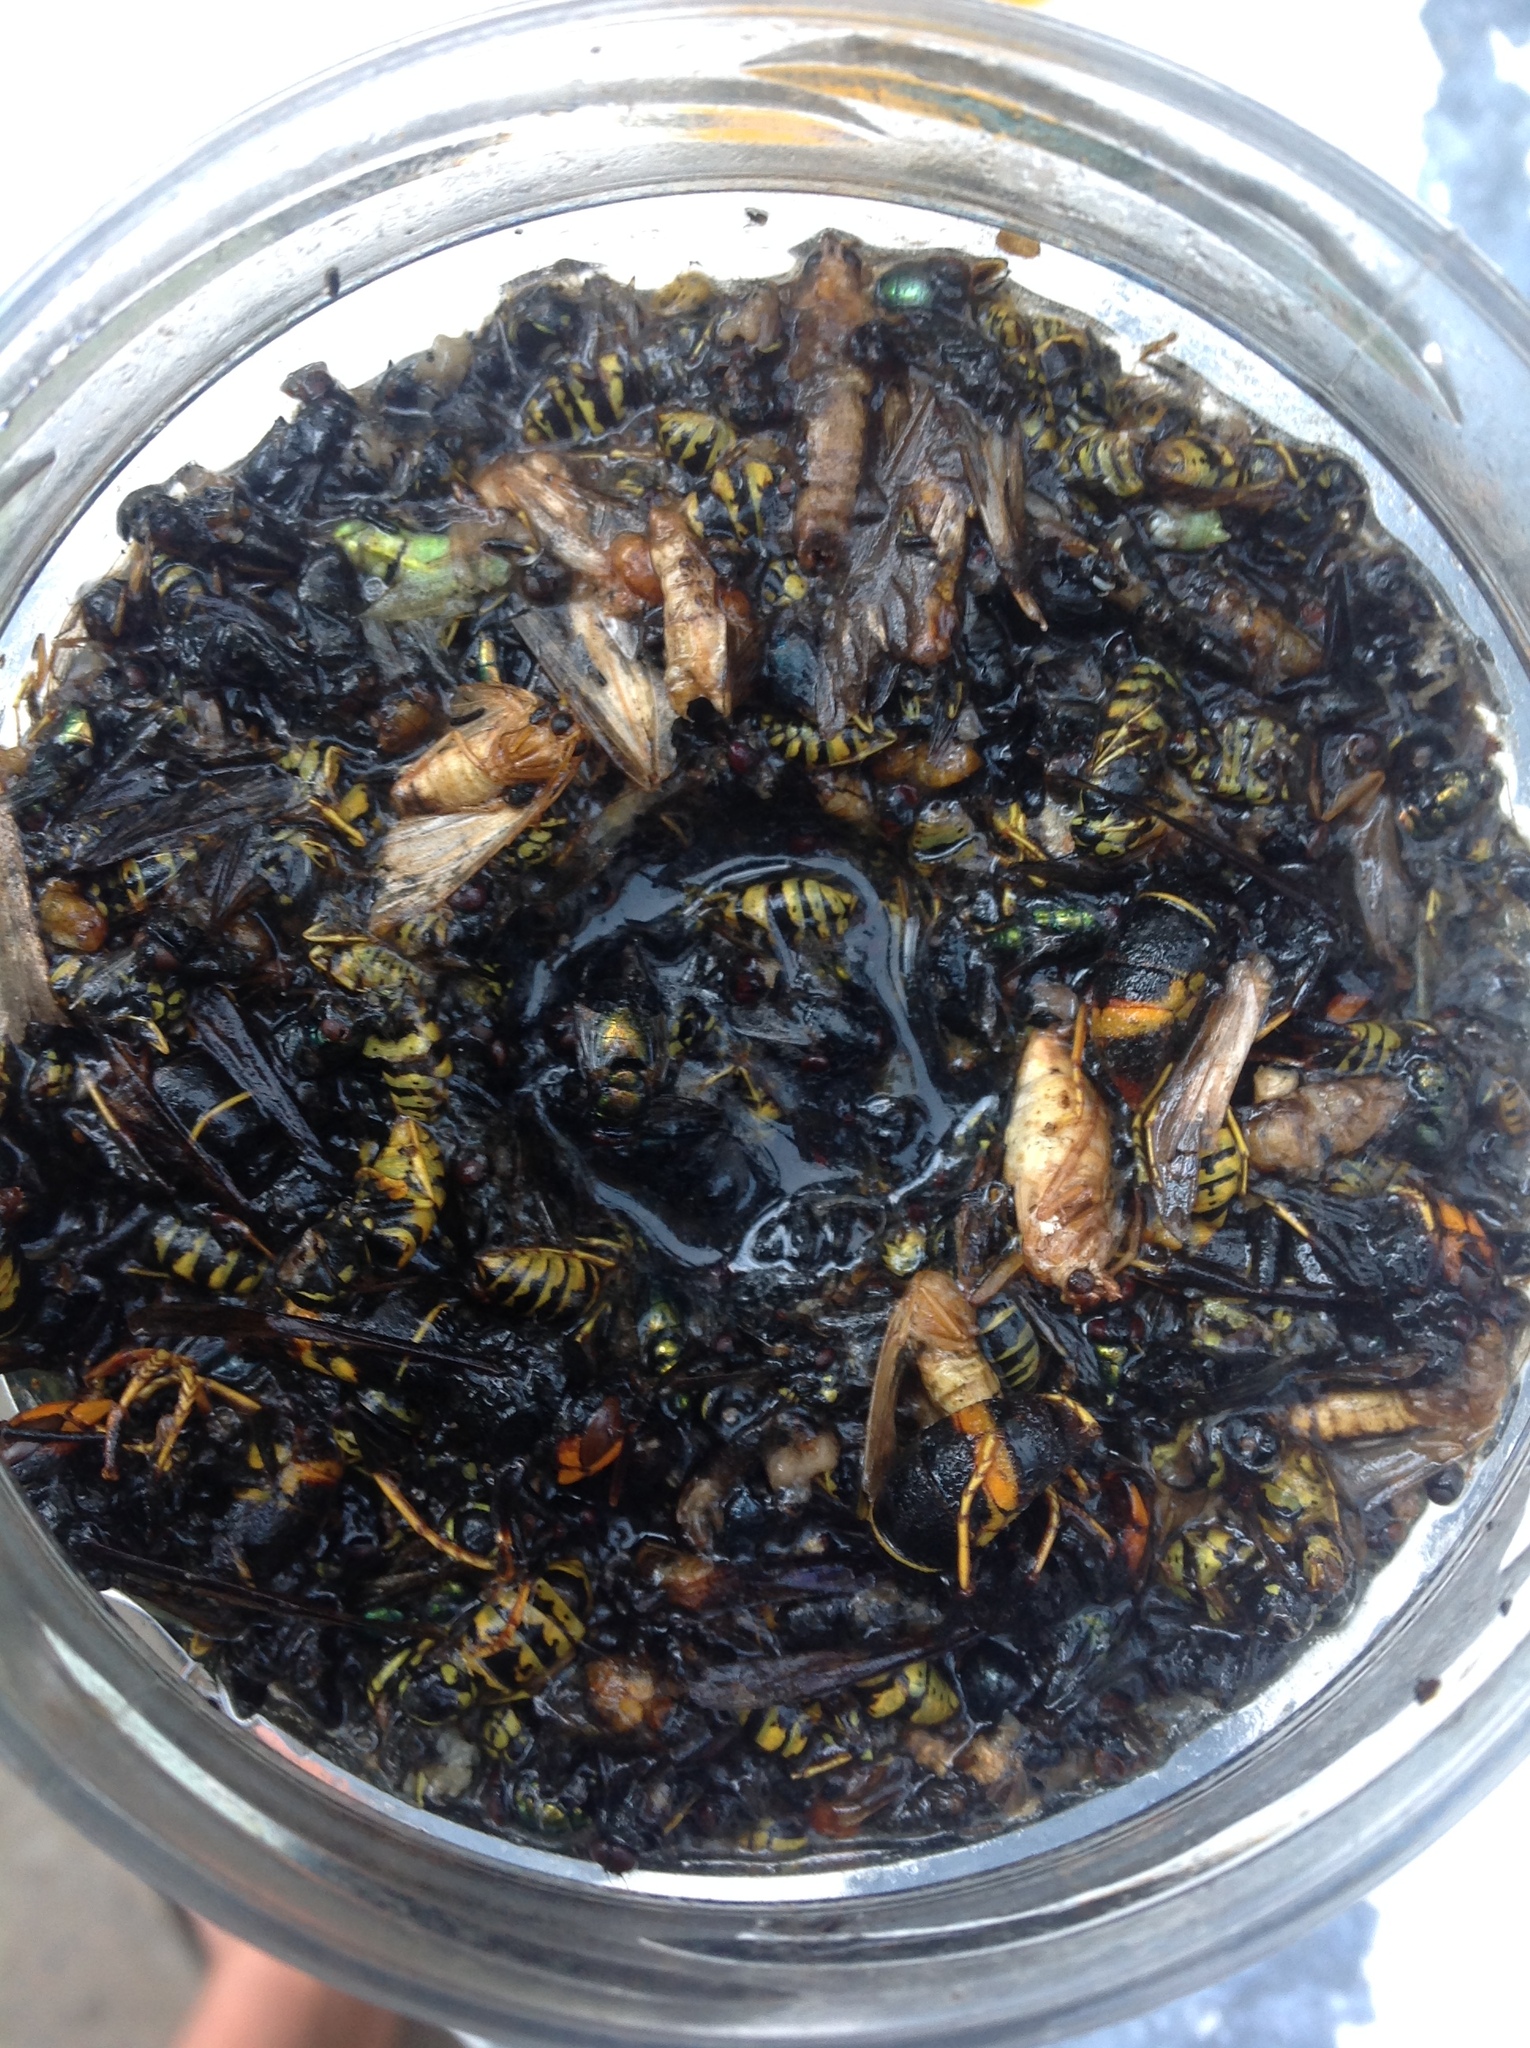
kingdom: Animalia
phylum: Arthropoda
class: Insecta
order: Hymenoptera
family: Vespidae
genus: Vespa
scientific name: Vespa velutina
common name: Asian hornet
